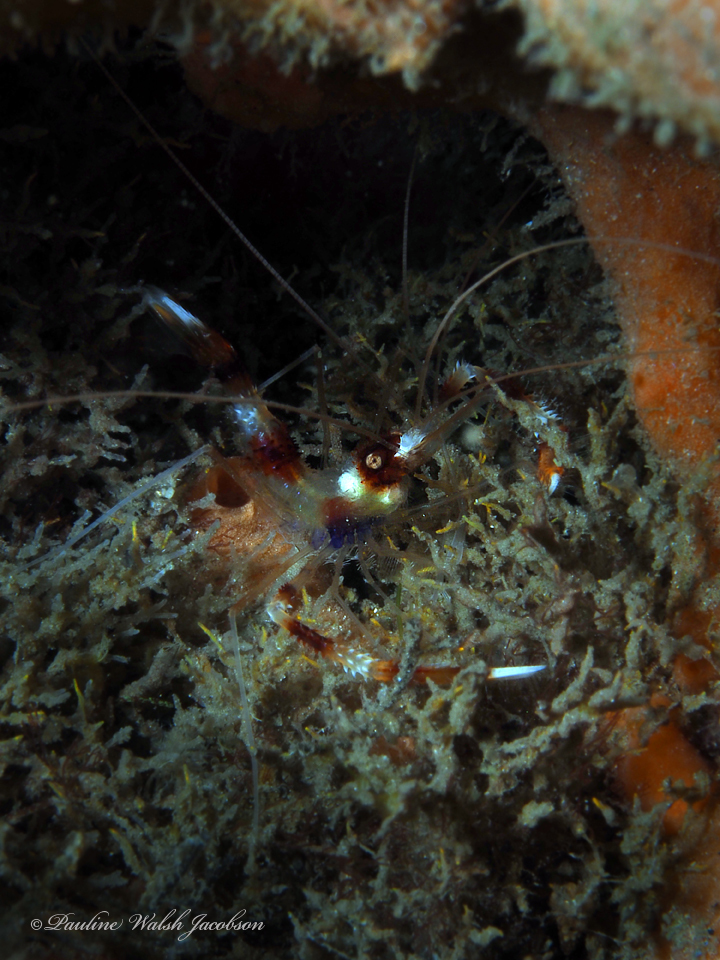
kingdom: Animalia
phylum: Arthropoda
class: Malacostraca
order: Decapoda
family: Stenopodidae
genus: Stenopus
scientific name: Stenopus hispidus
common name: Banded coral shrimp
